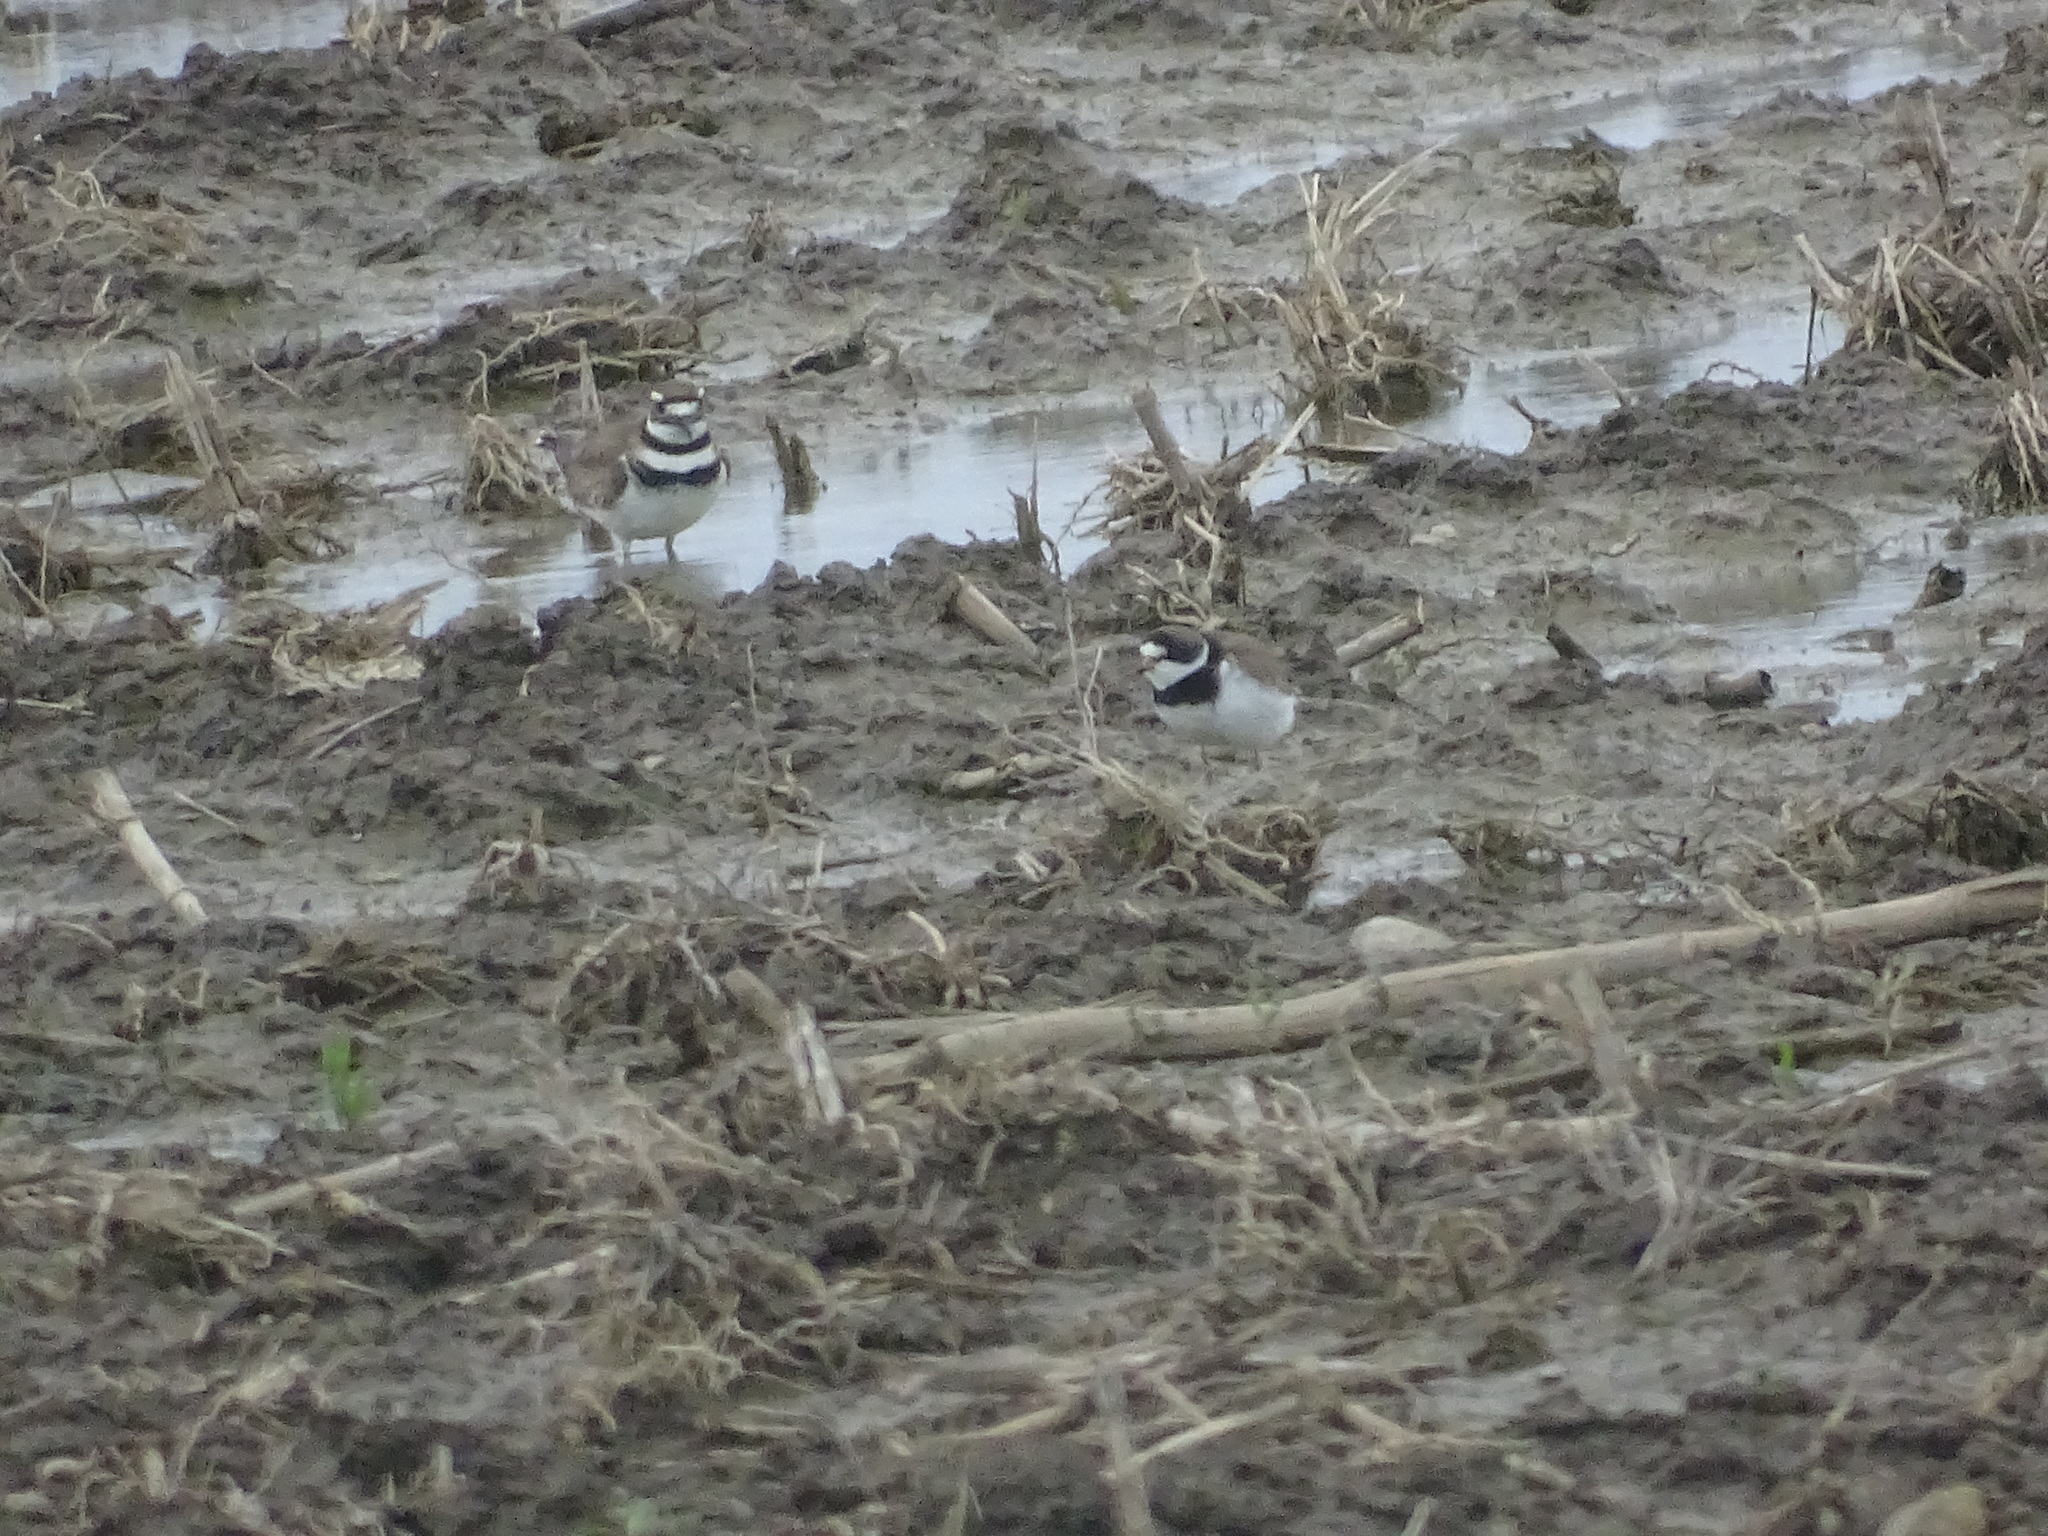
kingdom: Animalia
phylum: Chordata
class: Aves
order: Charadriiformes
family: Charadriidae
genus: Charadrius
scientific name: Charadrius semipalmatus
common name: Semipalmated plover
